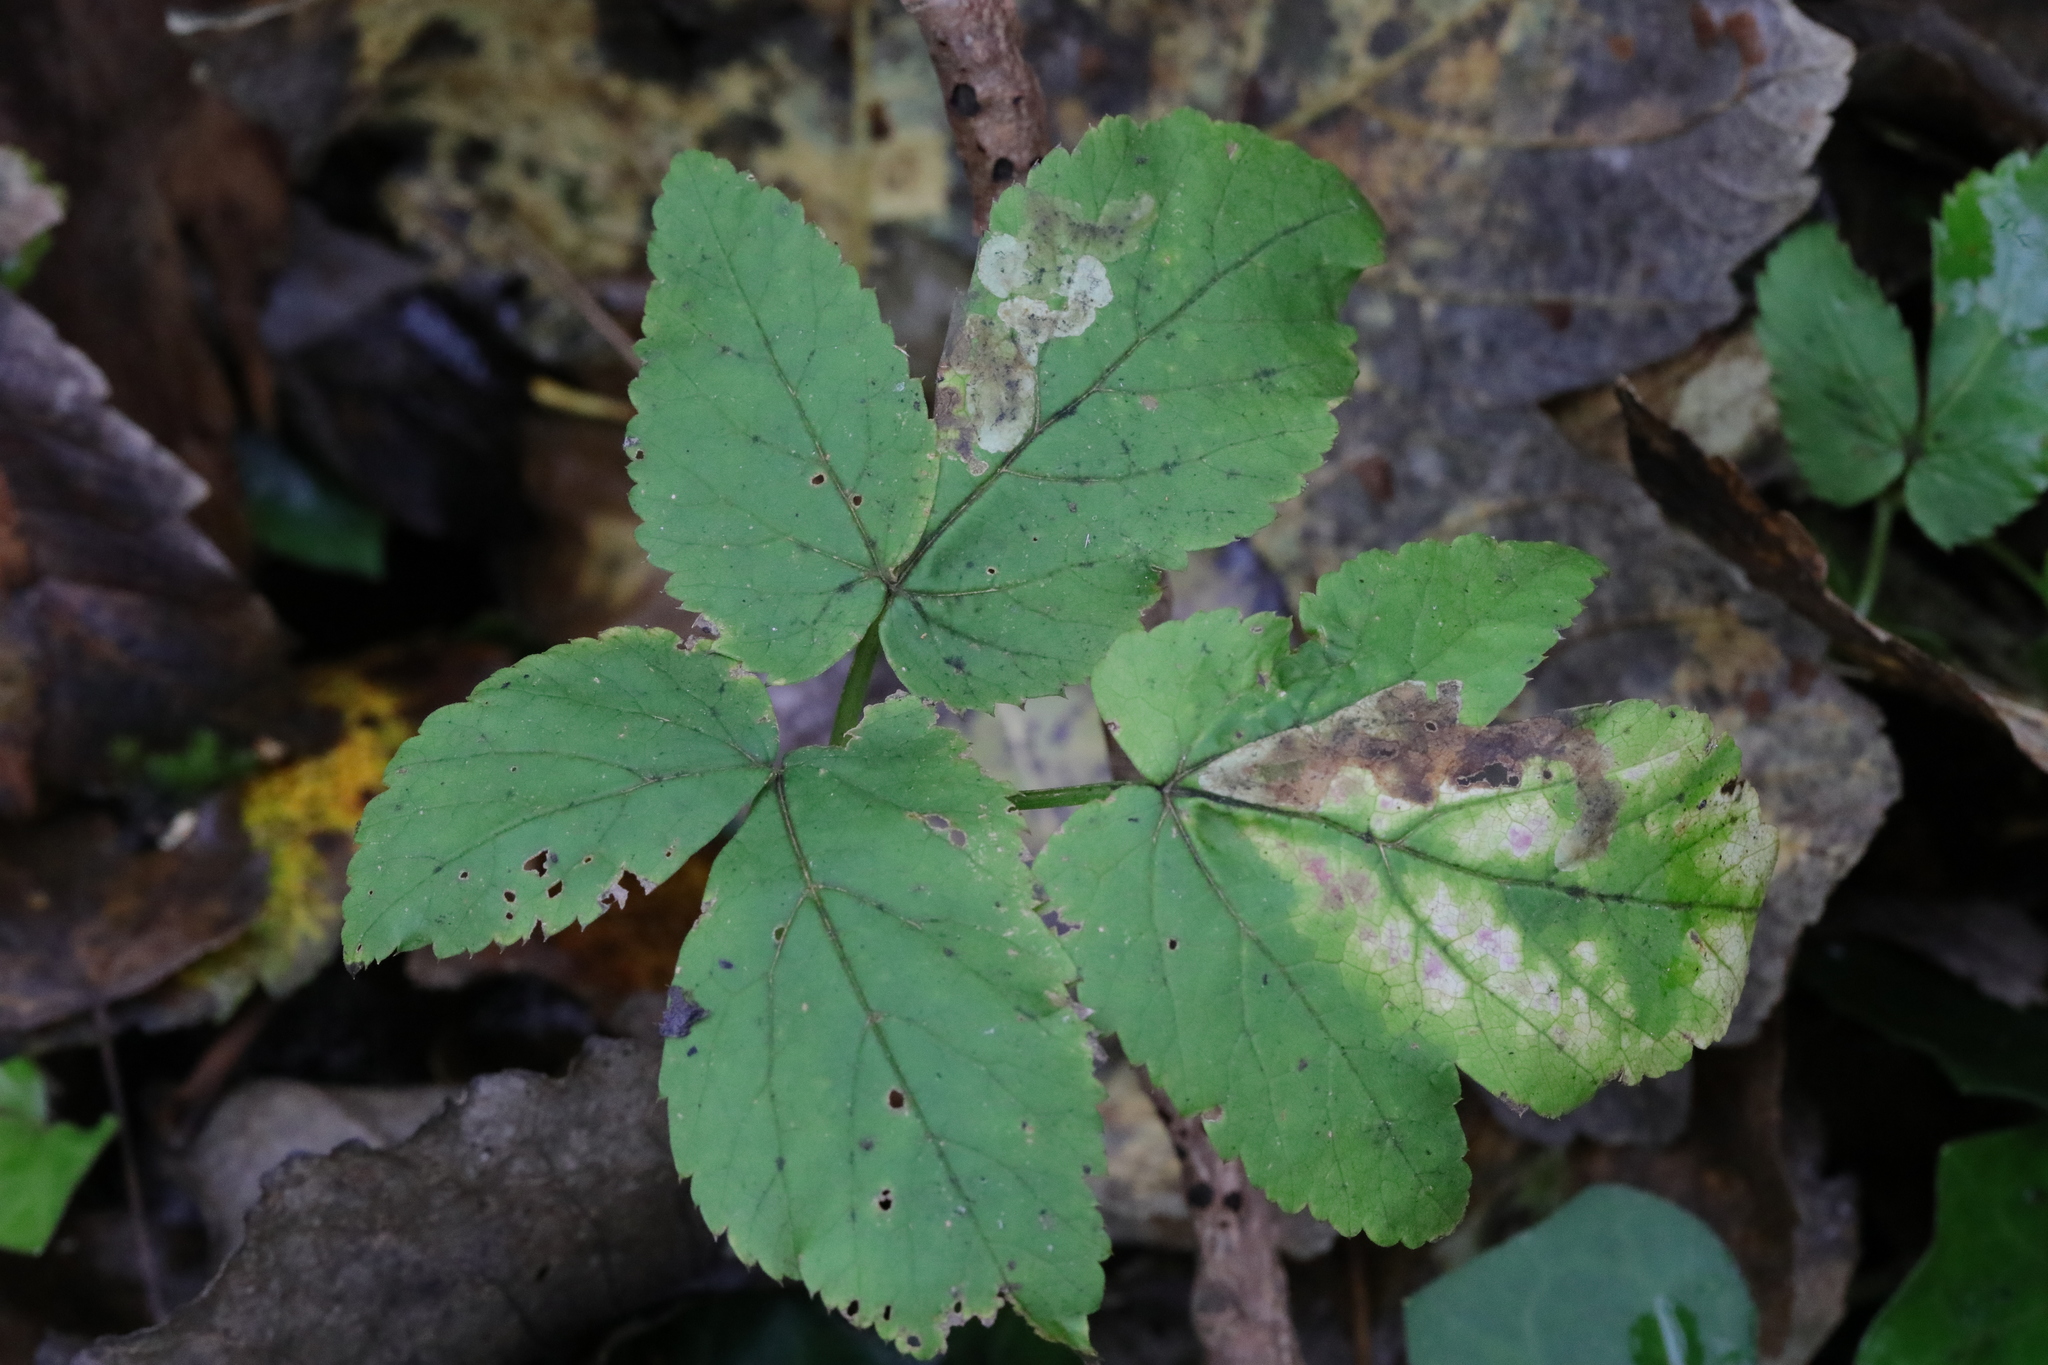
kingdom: Plantae
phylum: Tracheophyta
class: Magnoliopsida
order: Apiales
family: Apiaceae
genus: Aegopodium
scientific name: Aegopodium podagraria
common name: Ground-elder
